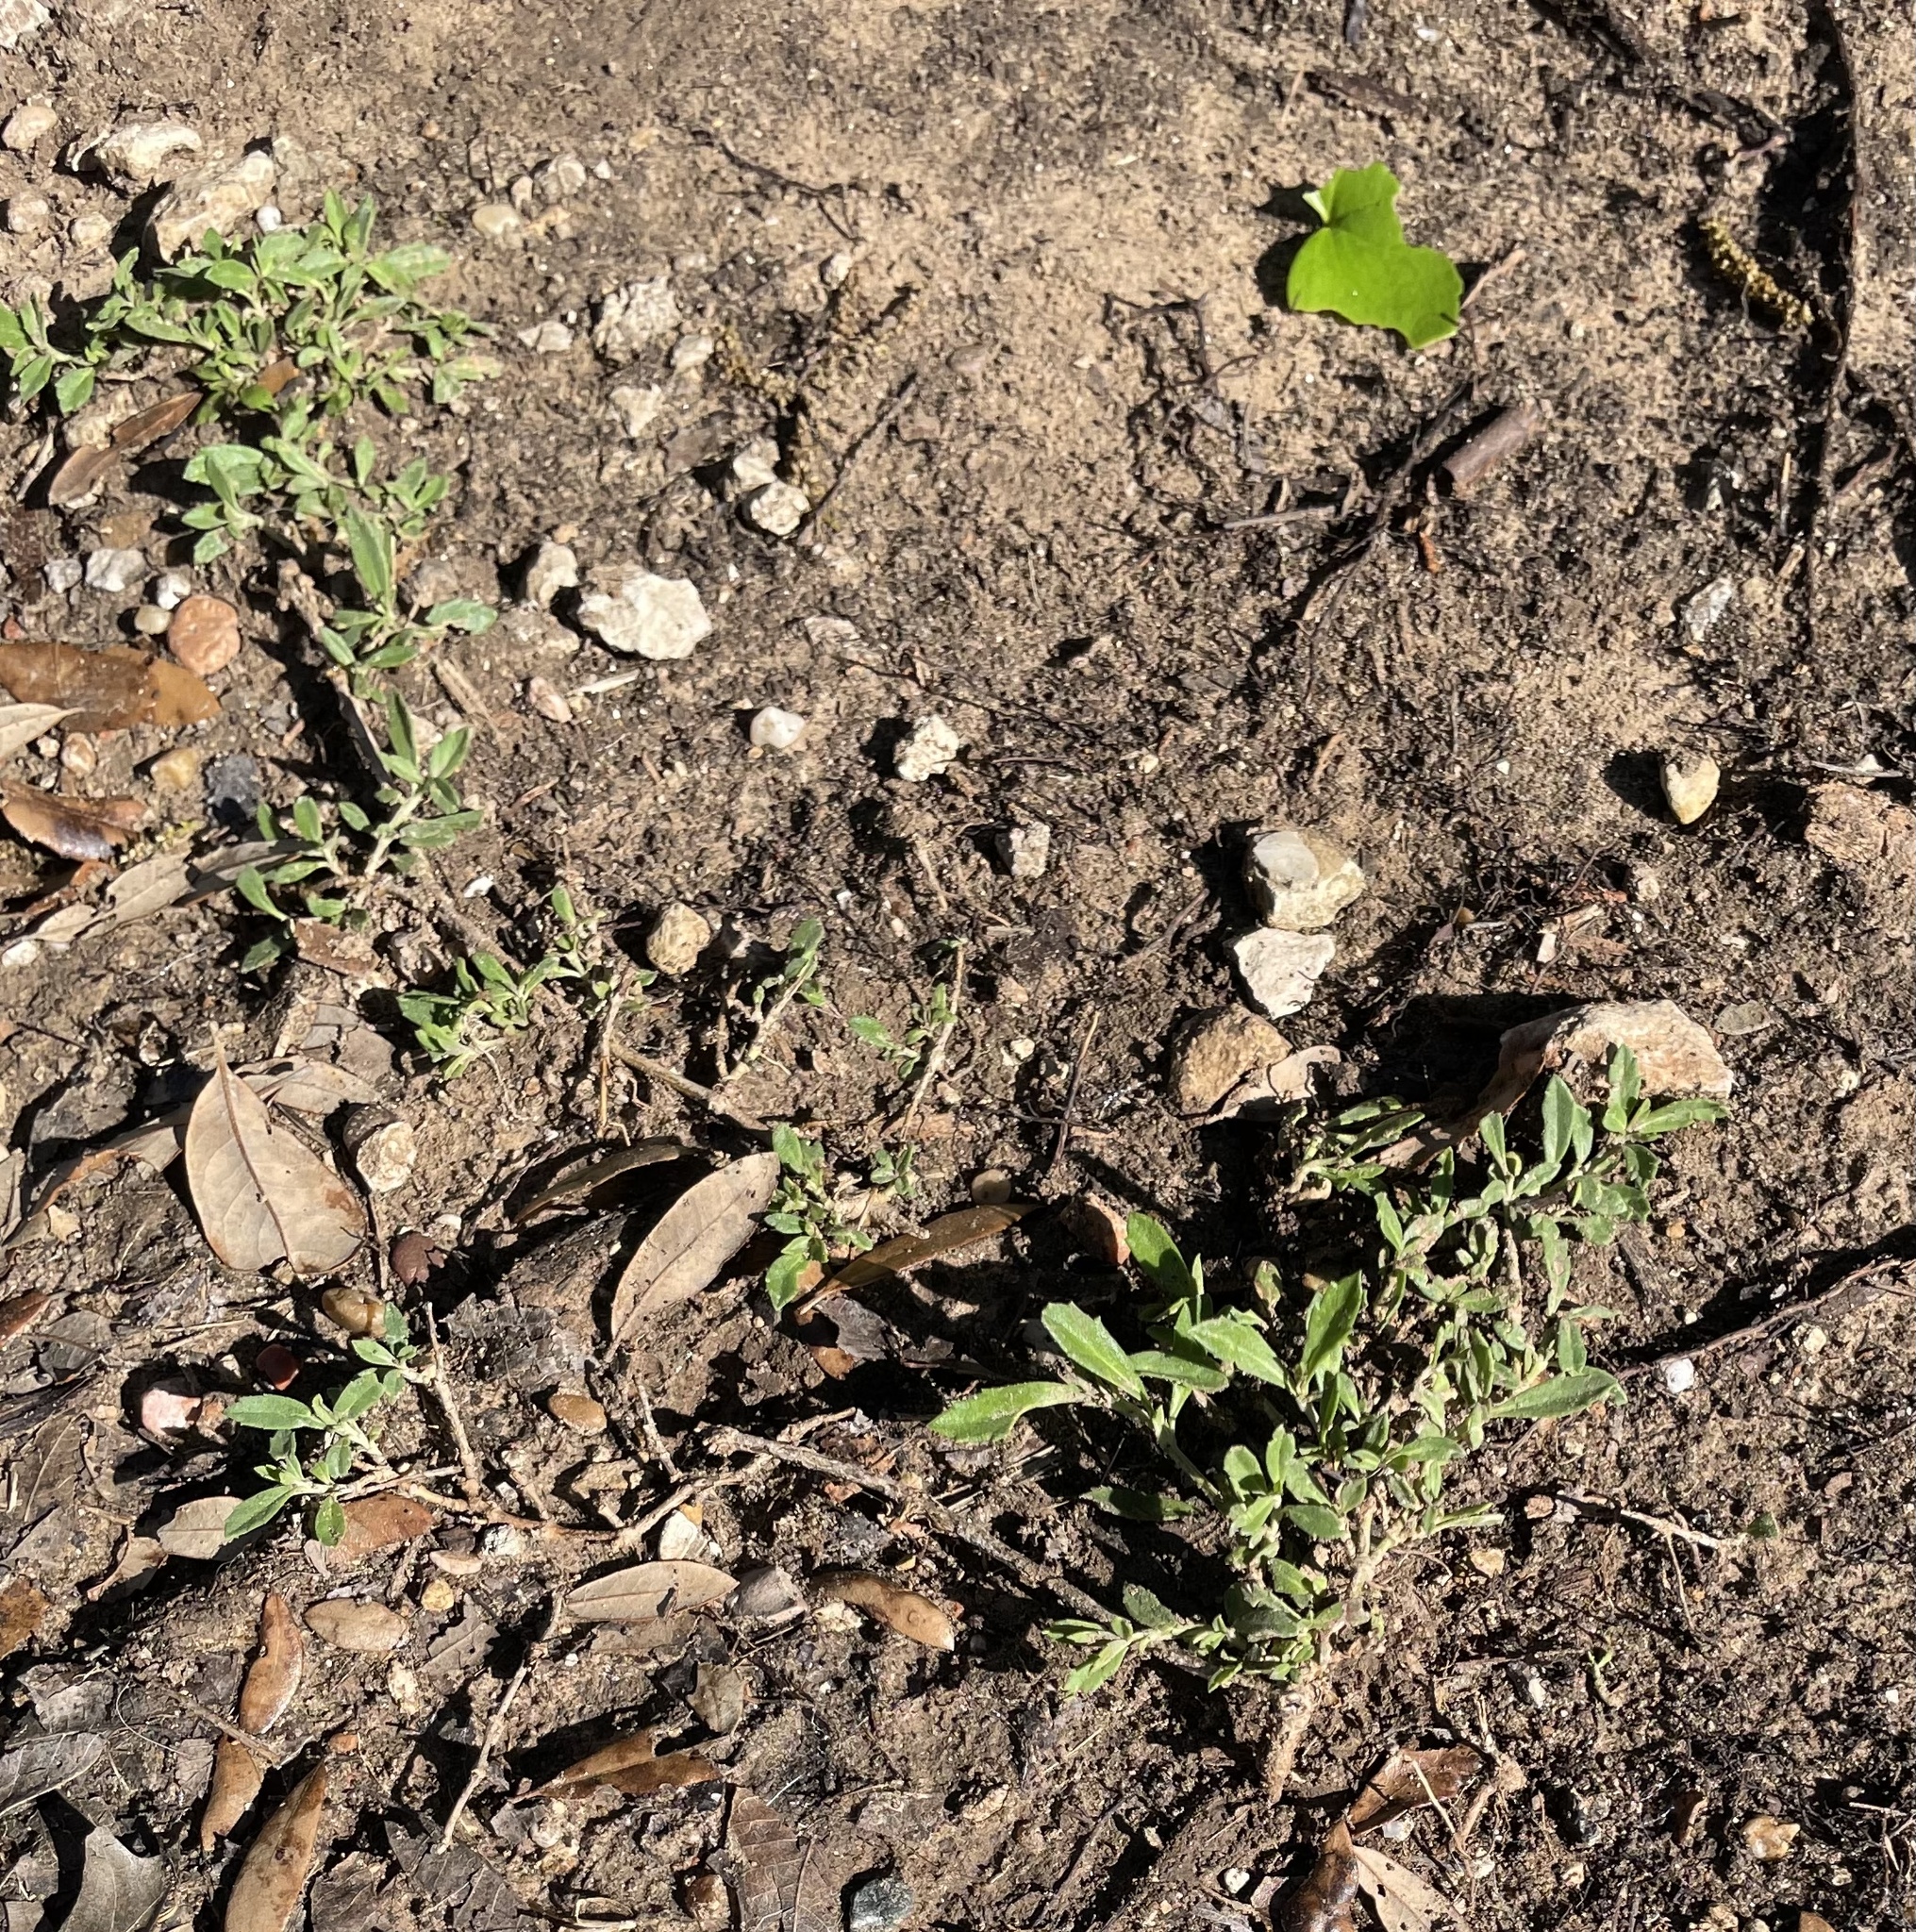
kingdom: Plantae
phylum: Tracheophyta
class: Magnoliopsida
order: Lamiales
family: Verbenaceae
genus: Phyla
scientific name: Phyla nodiflora
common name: Frogfruit
